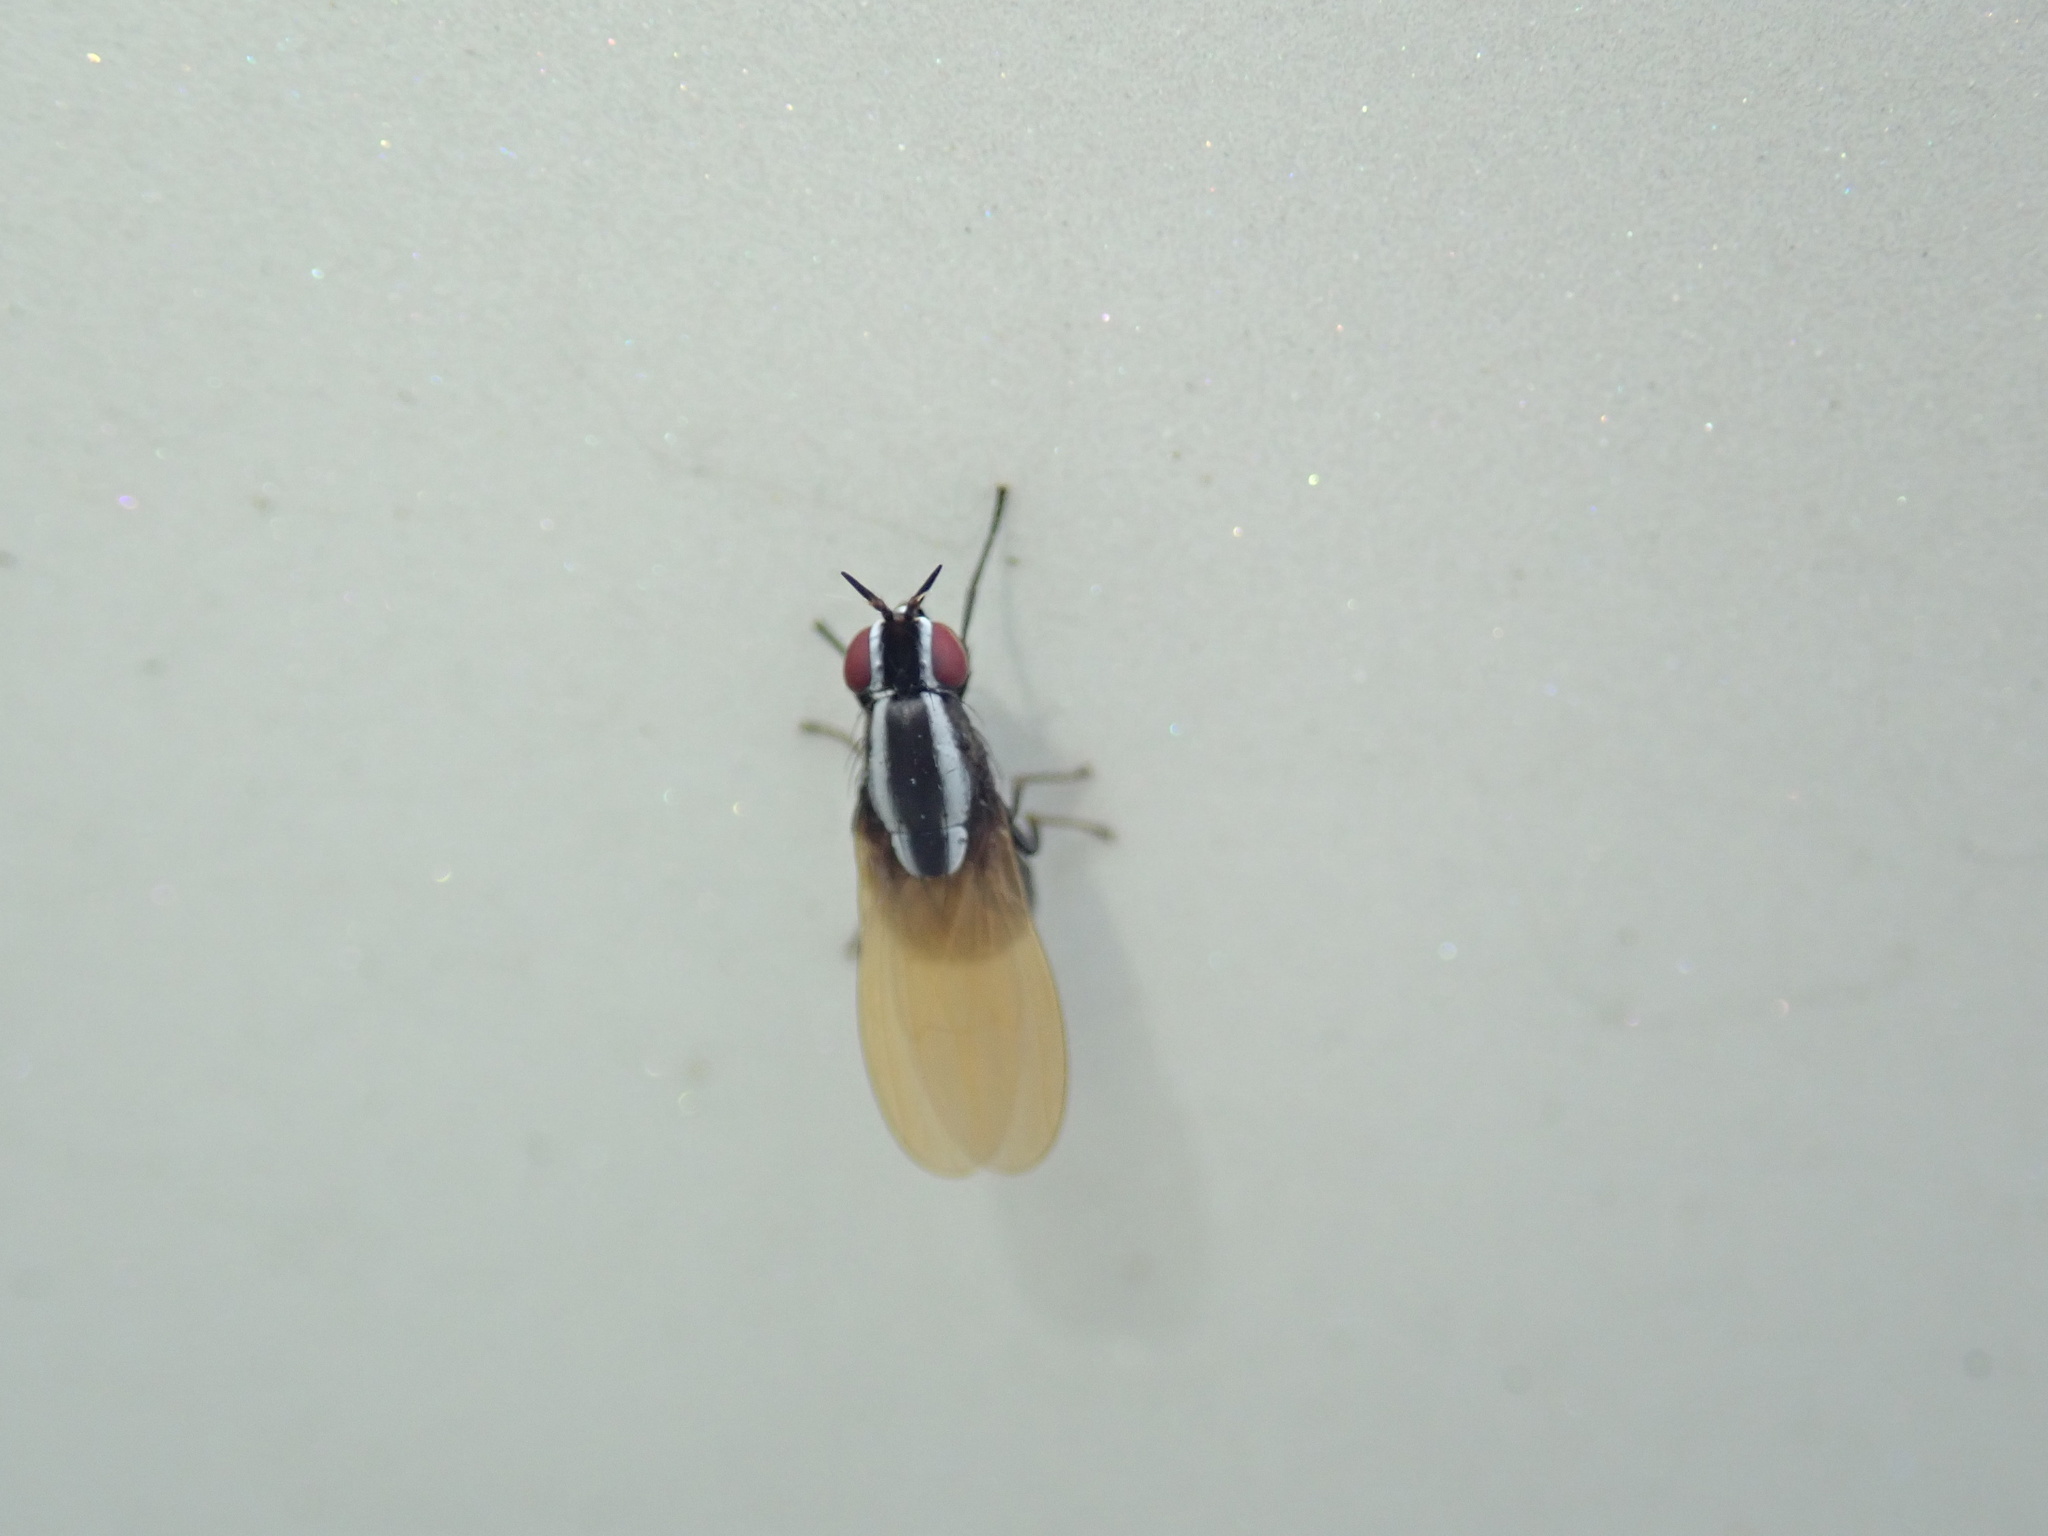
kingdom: Animalia
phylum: Arthropoda
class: Insecta
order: Diptera
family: Lauxaniidae
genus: Poecilohetaerella
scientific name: Poecilohetaerella bilineata
